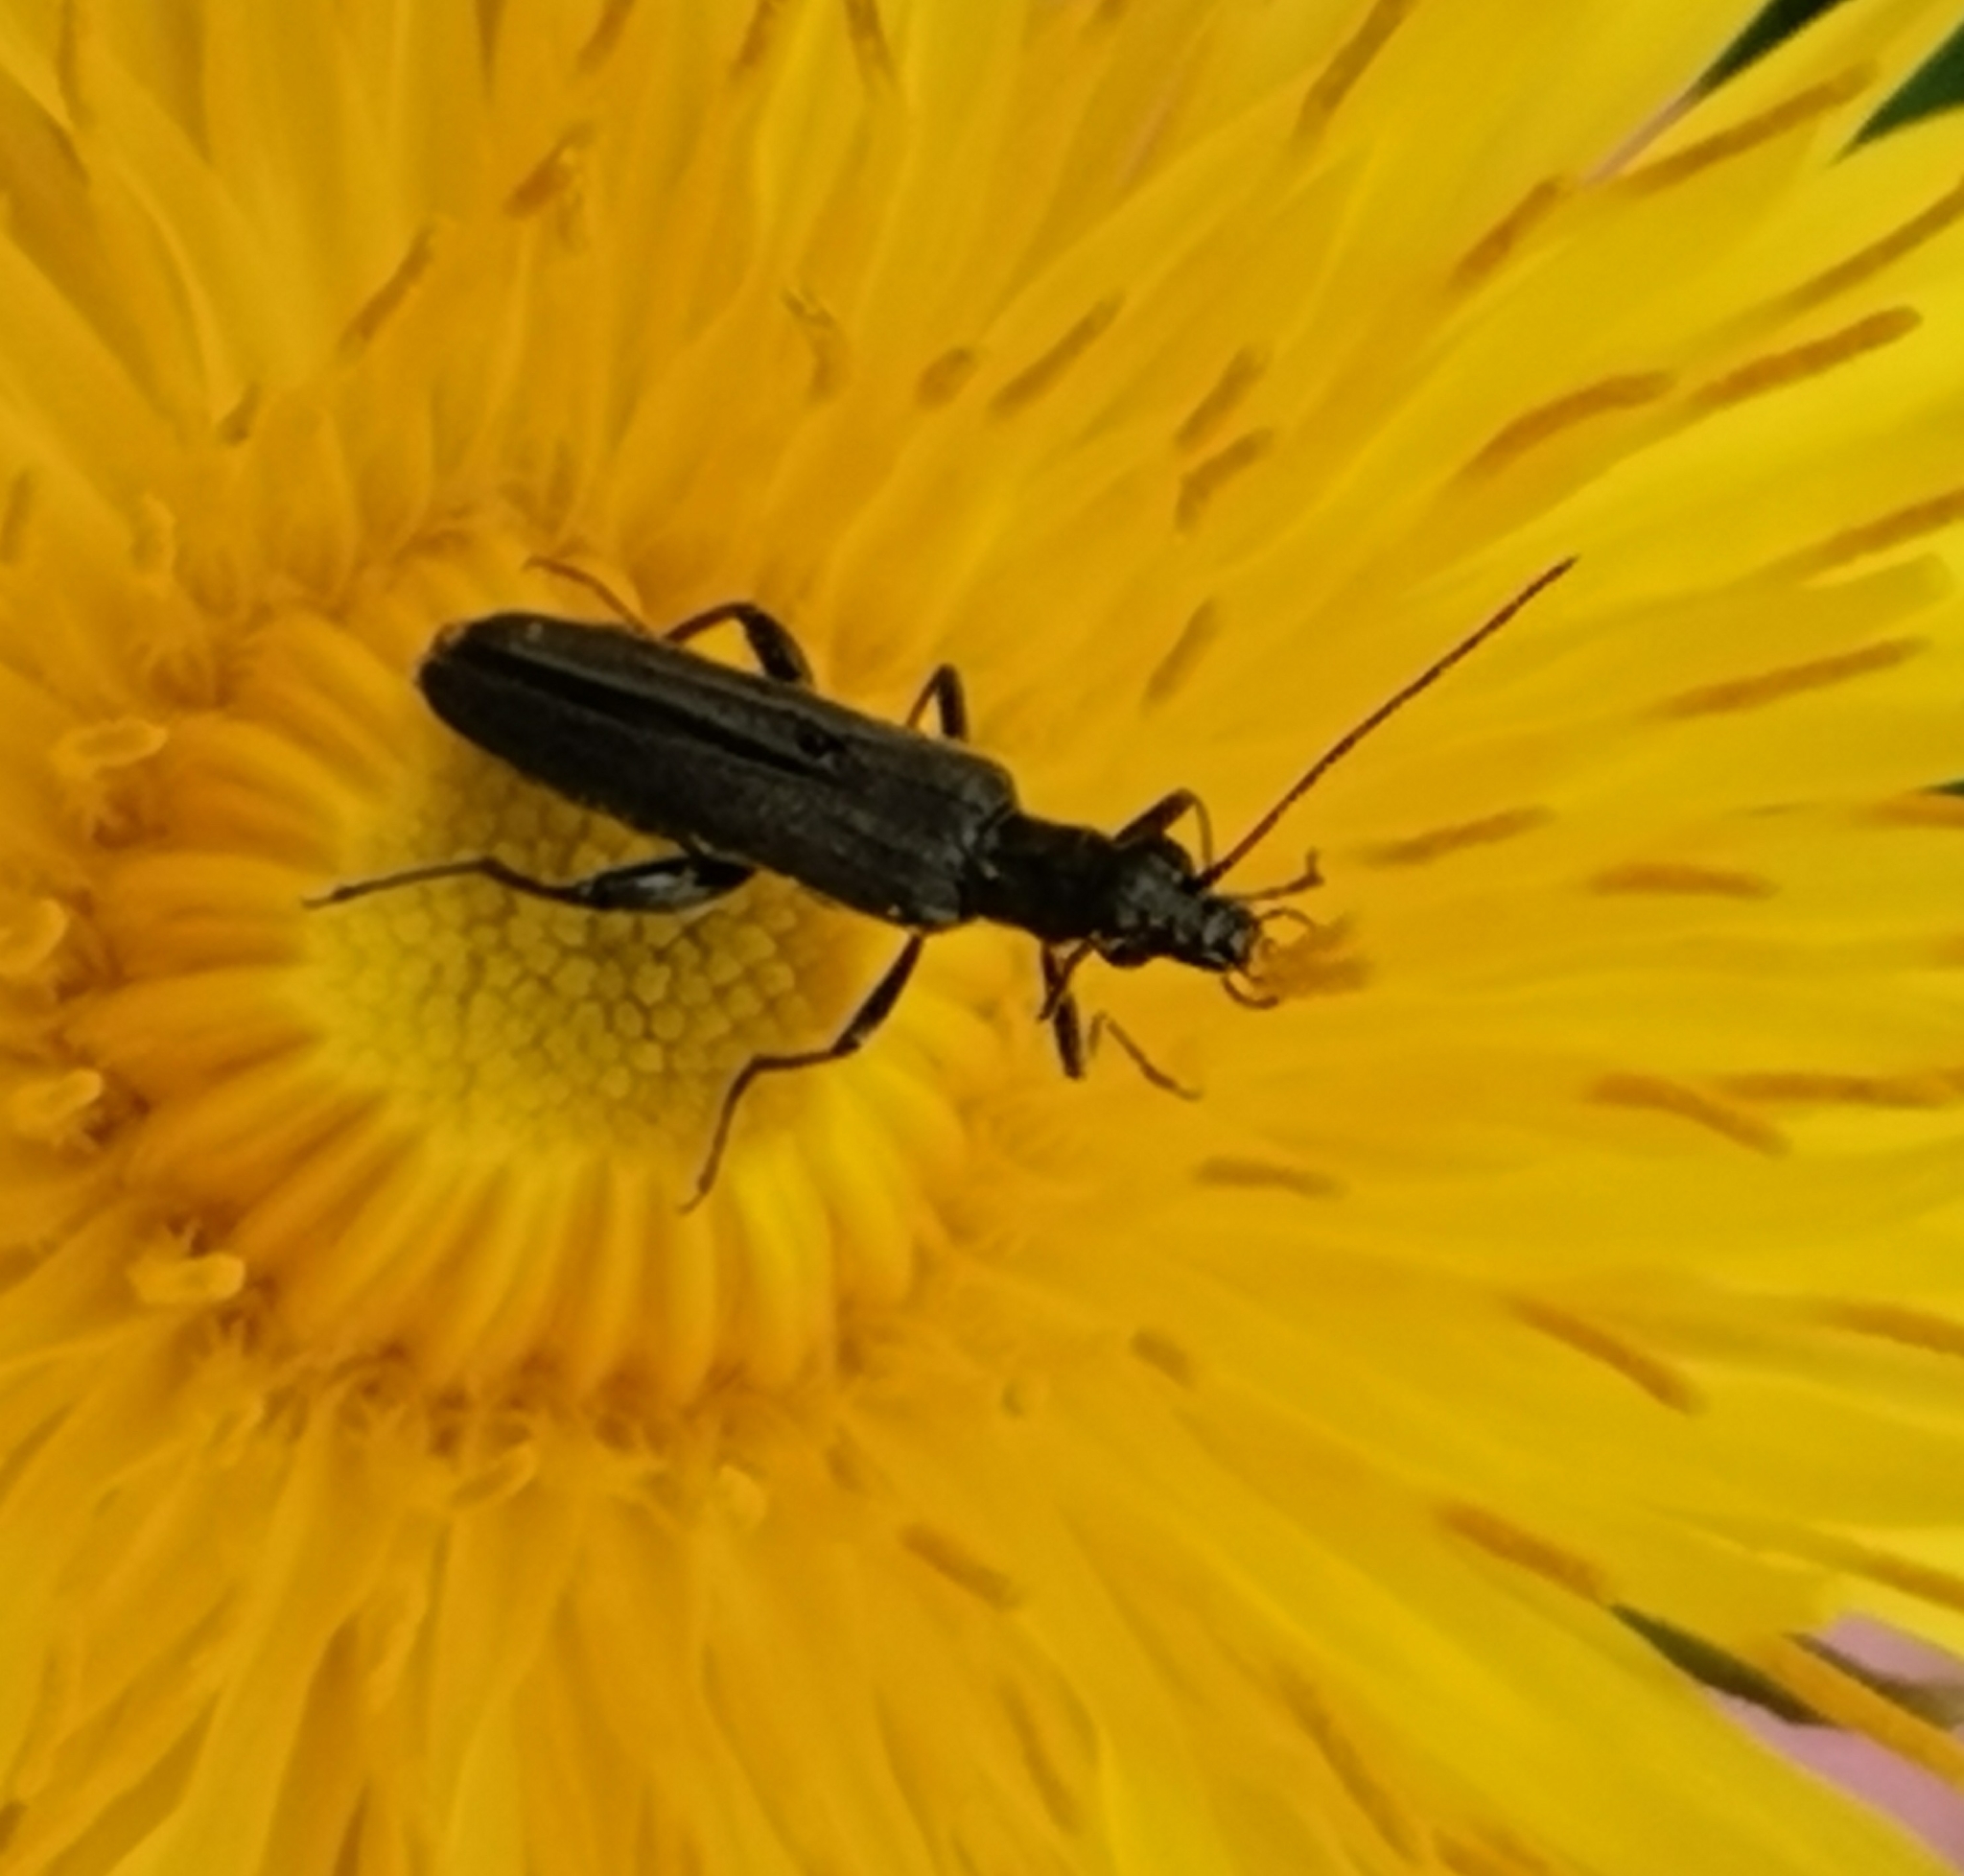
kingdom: Animalia
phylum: Arthropoda
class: Insecta
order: Coleoptera
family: Oedemeridae
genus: Oedemera
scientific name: Oedemera virescens
